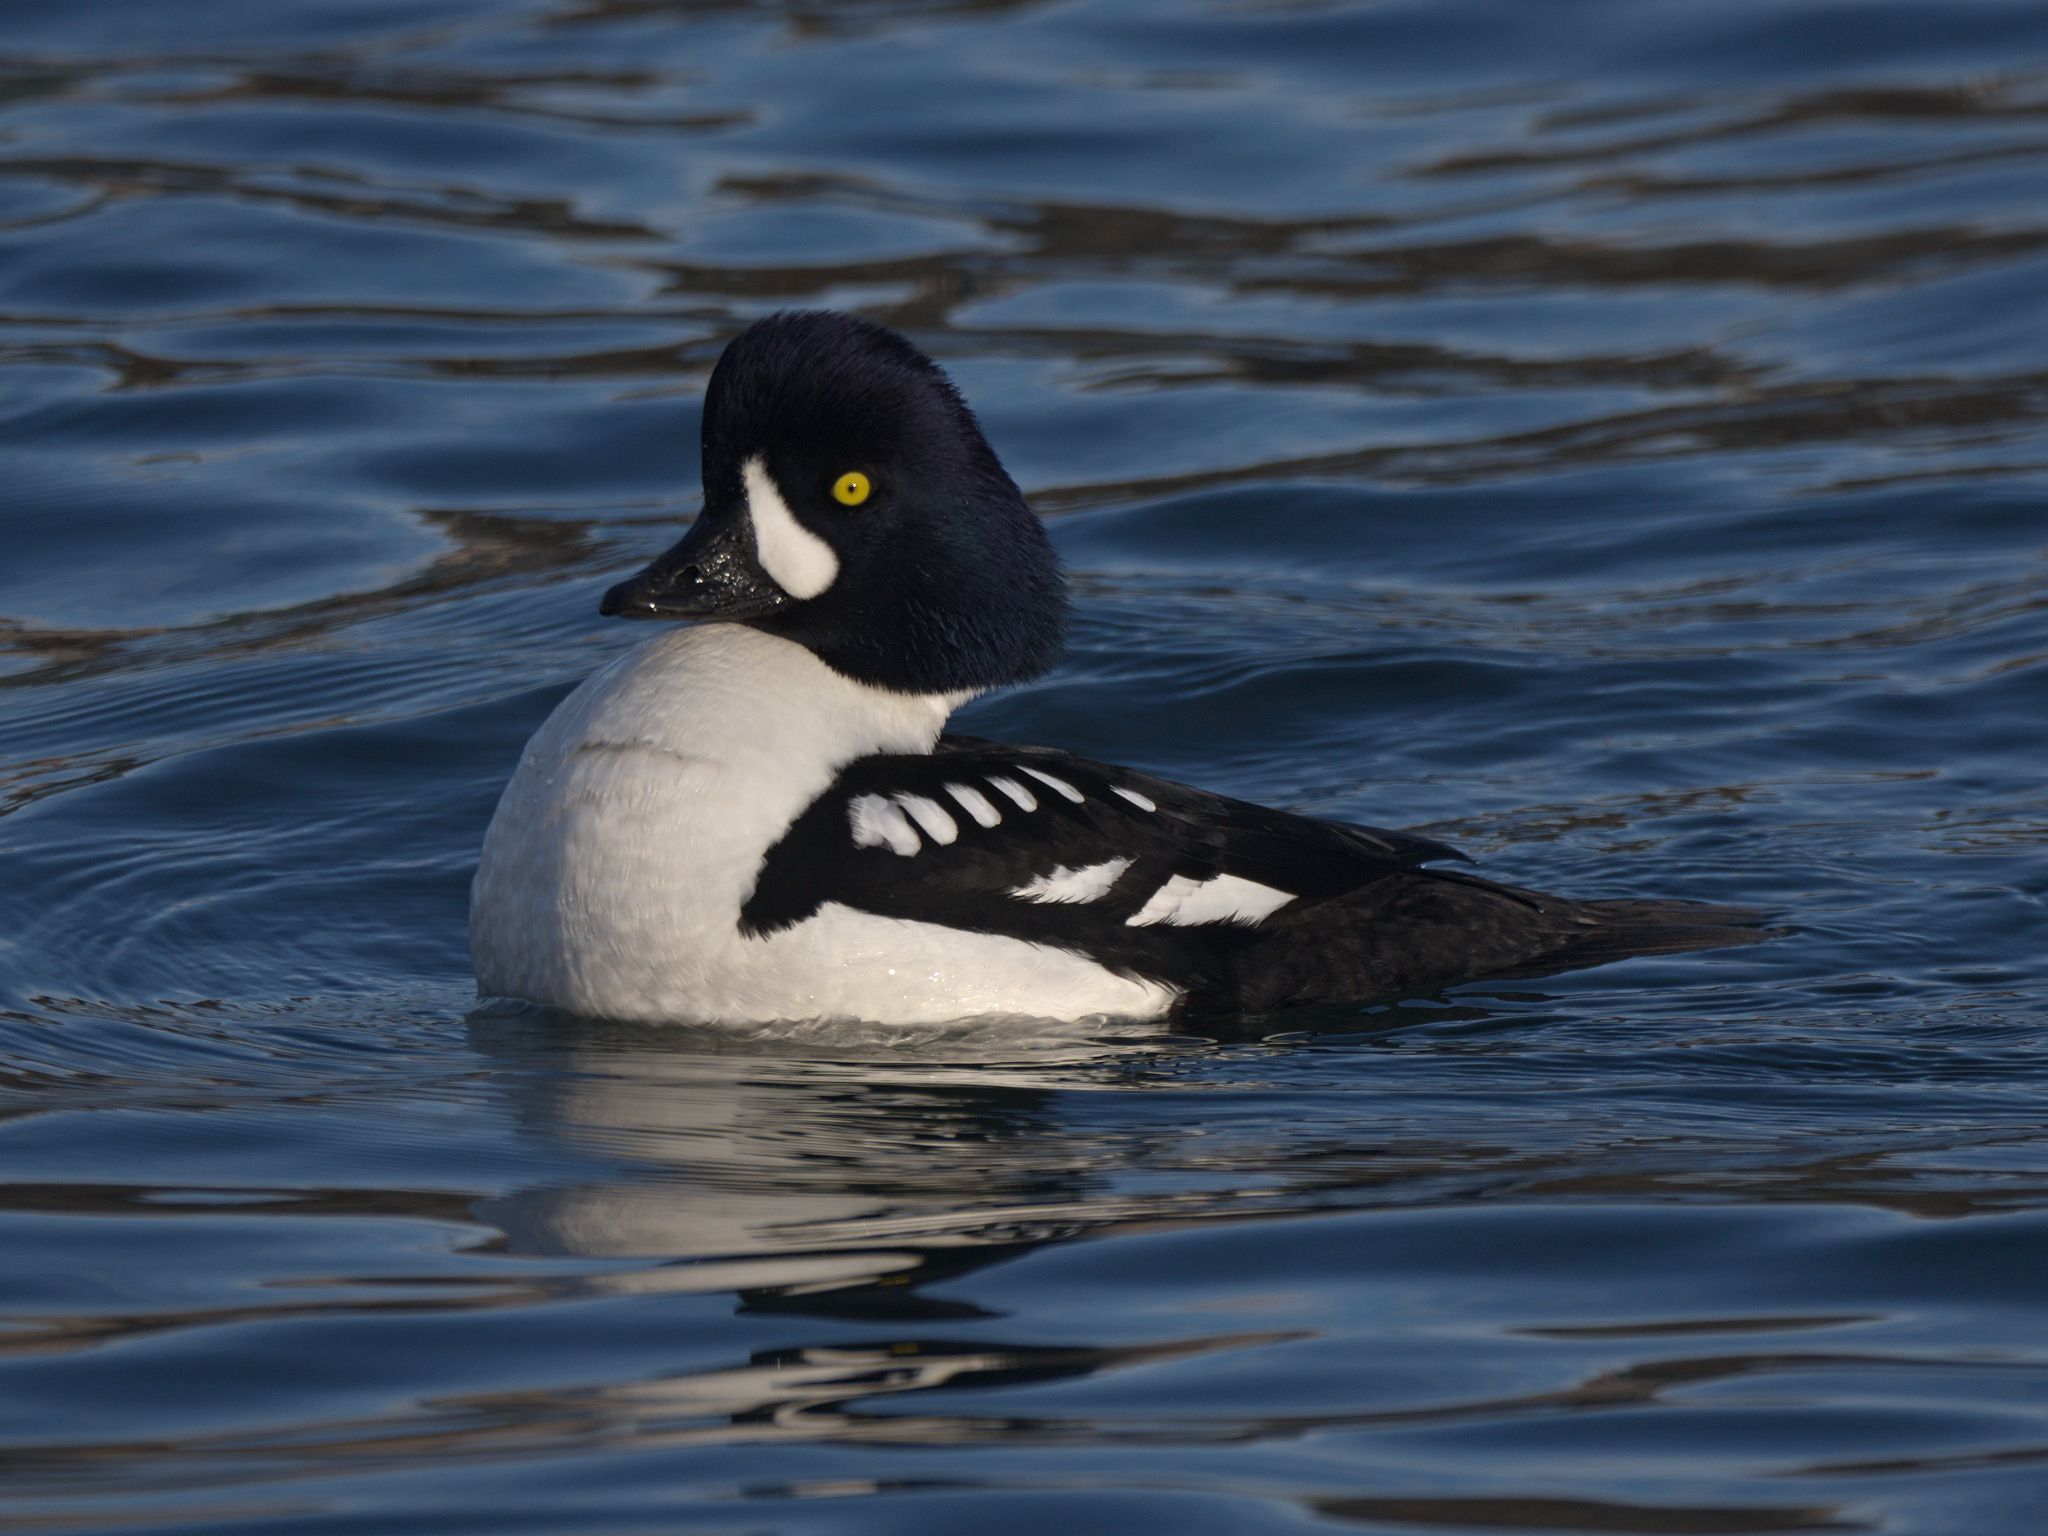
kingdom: Animalia
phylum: Chordata
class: Aves
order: Anseriformes
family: Anatidae
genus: Bucephala
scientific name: Bucephala islandica
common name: Barrow's goldeneye
